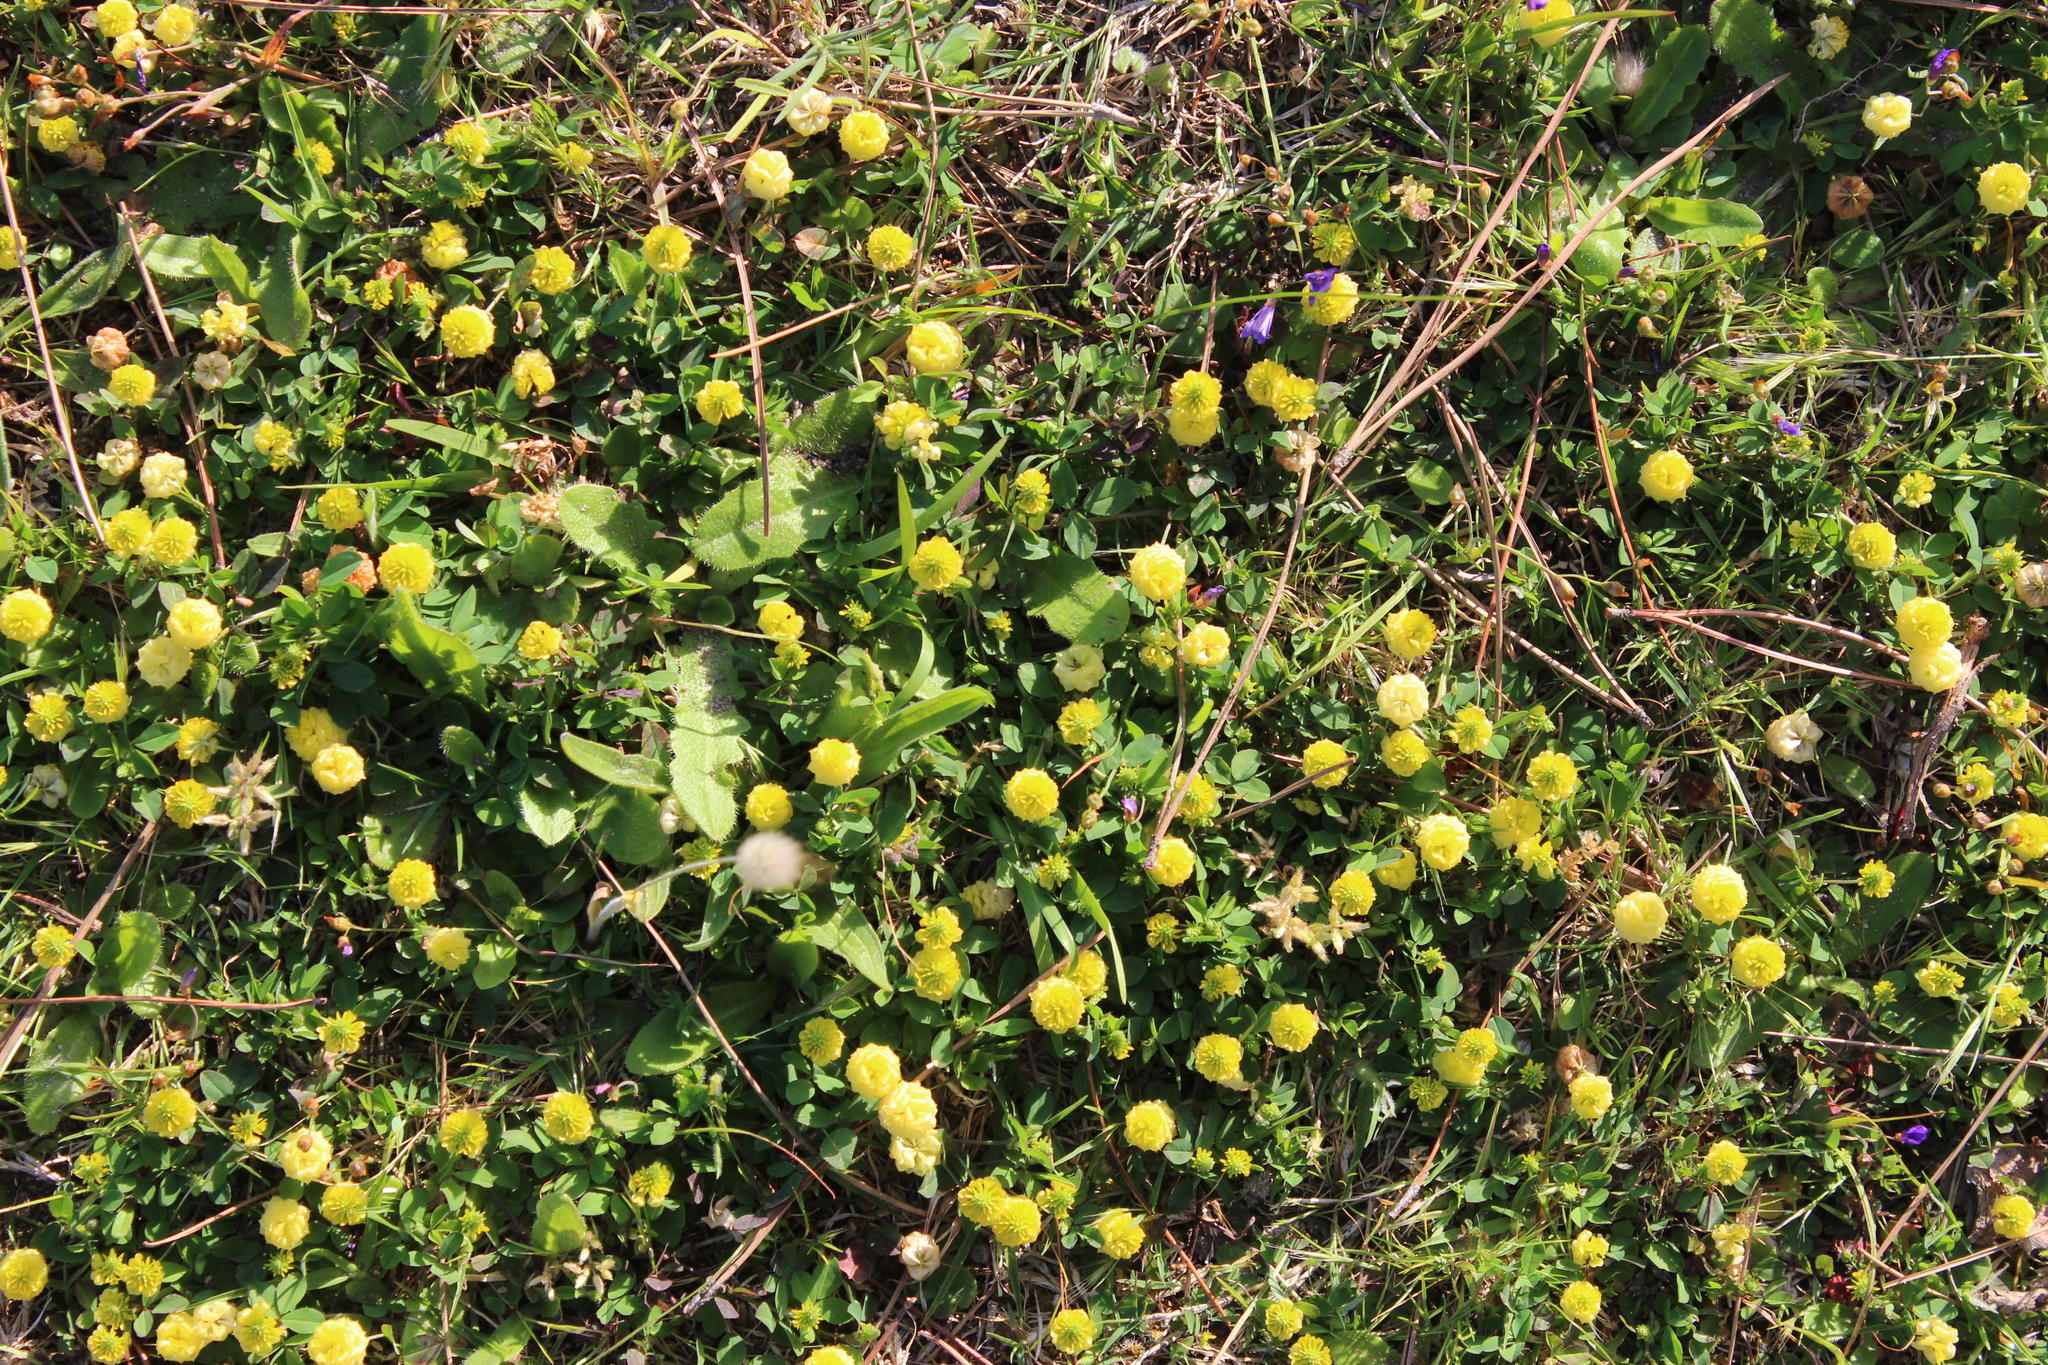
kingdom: Plantae
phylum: Tracheophyta
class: Magnoliopsida
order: Fabales
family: Fabaceae
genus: Trifolium
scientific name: Trifolium campestre
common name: Field clover
